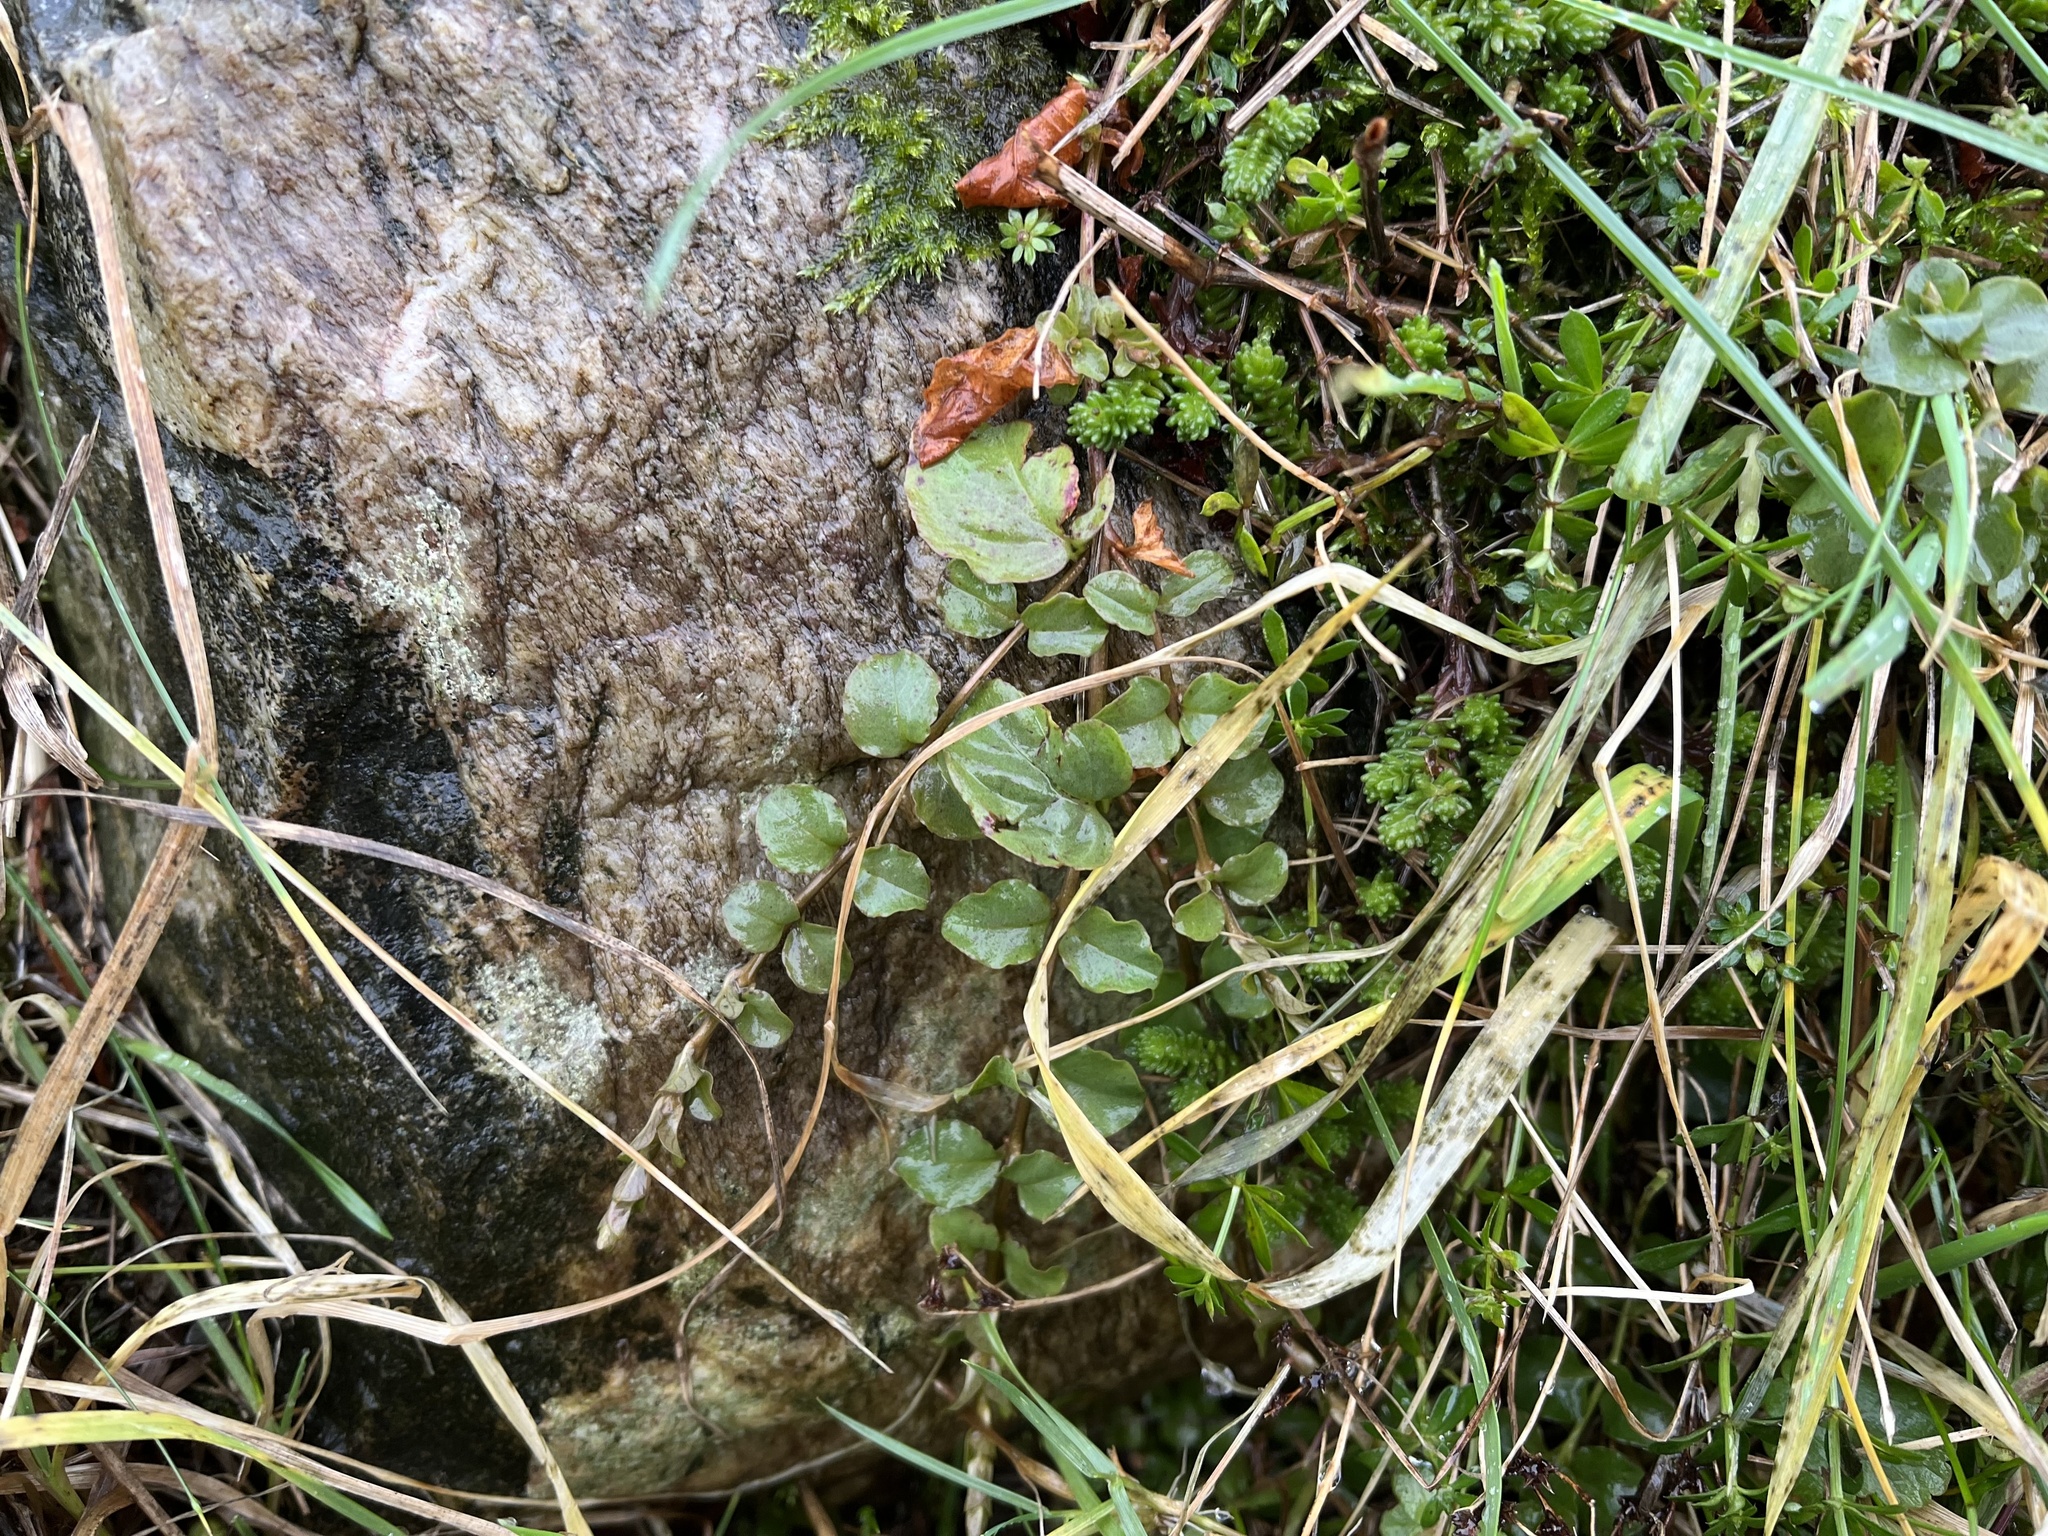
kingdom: Plantae
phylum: Tracheophyta
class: Magnoliopsida
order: Ericales
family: Primulaceae
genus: Lysimachia
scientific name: Lysimachia nummularia
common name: Moneywort
